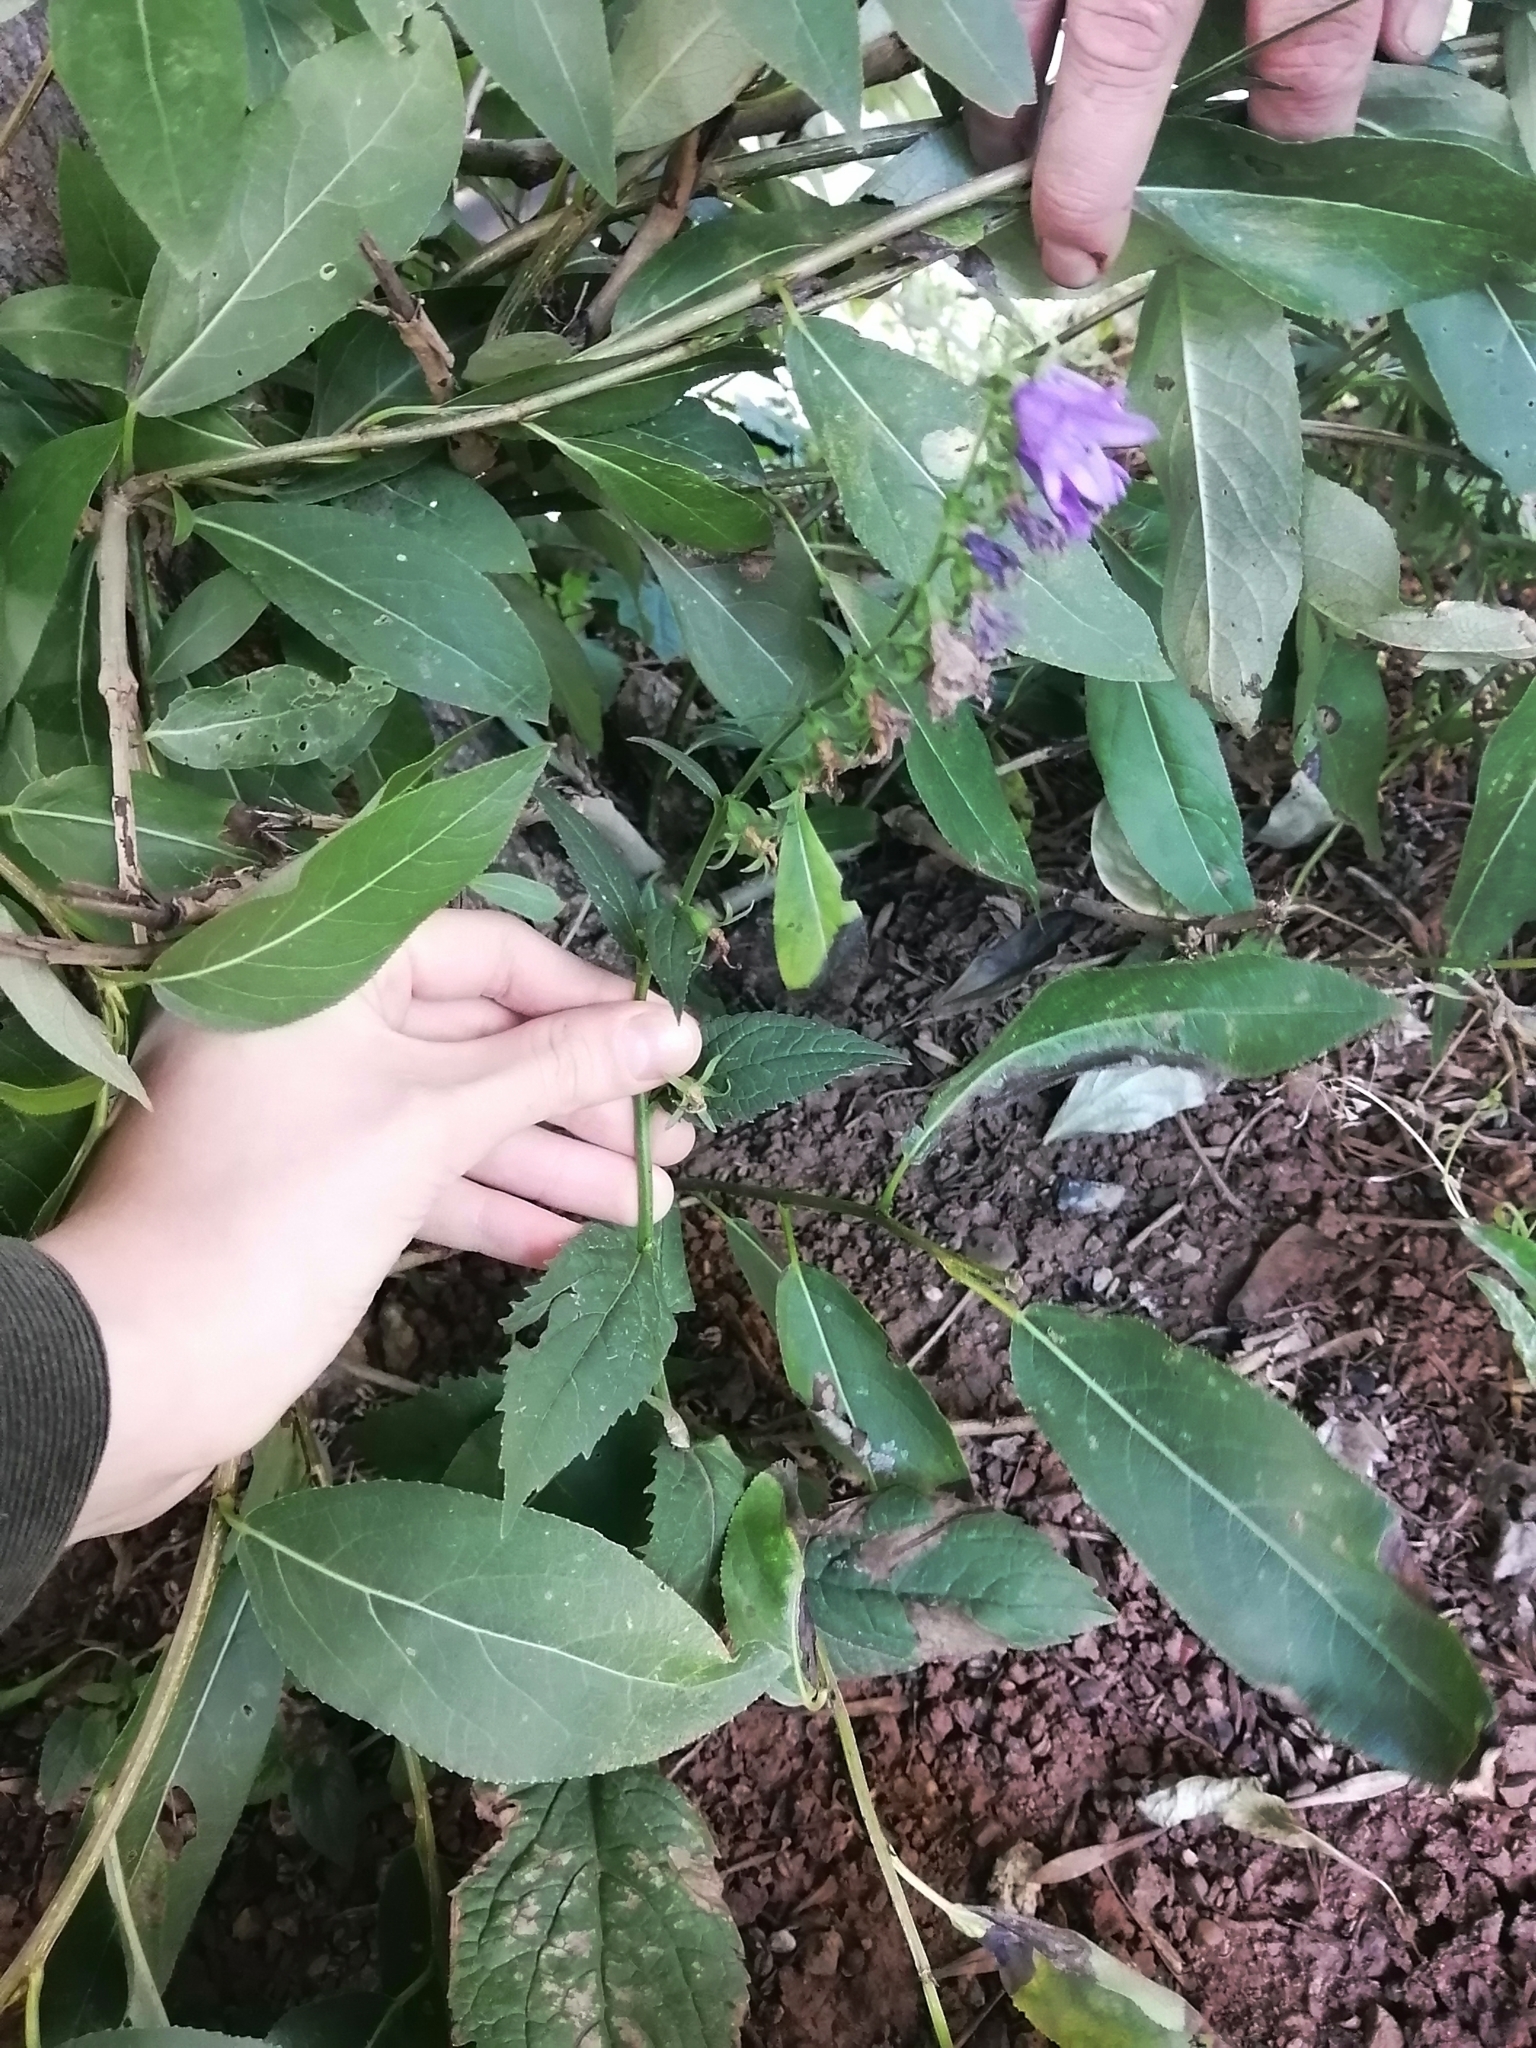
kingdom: Plantae
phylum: Tracheophyta
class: Magnoliopsida
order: Asterales
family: Campanulaceae
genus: Campanula
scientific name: Campanula rapunculoides
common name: Creeping bellflower
